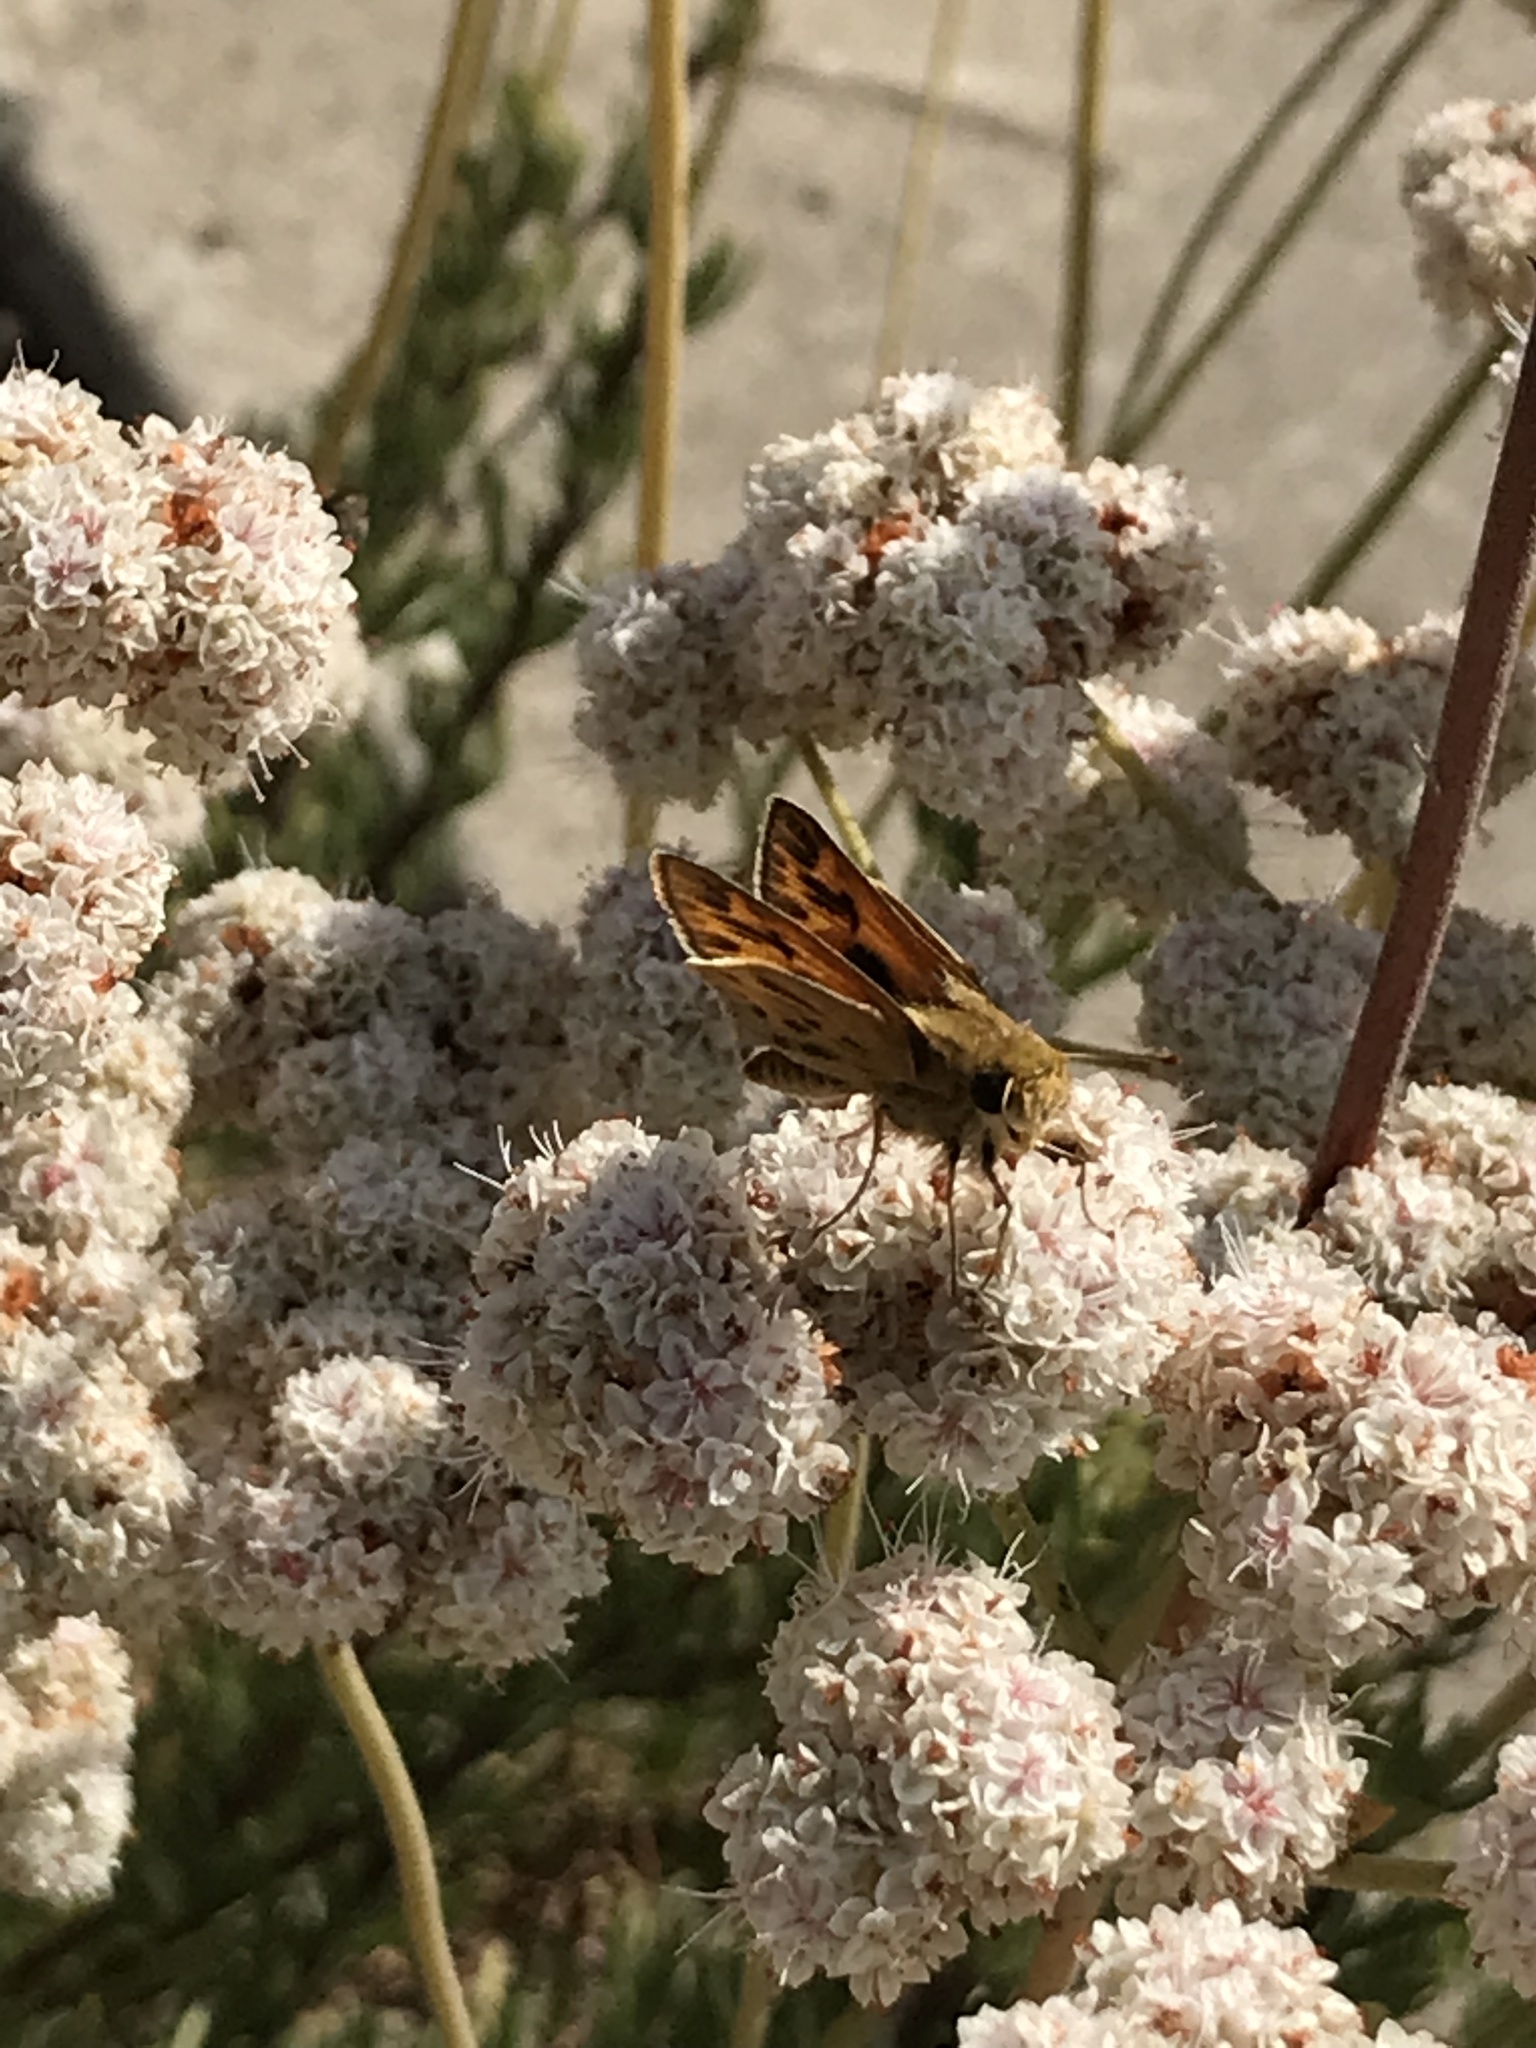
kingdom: Animalia
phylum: Arthropoda
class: Insecta
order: Lepidoptera
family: Hesperiidae
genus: Hylephila
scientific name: Hylephila phyleus
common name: Fiery skipper
